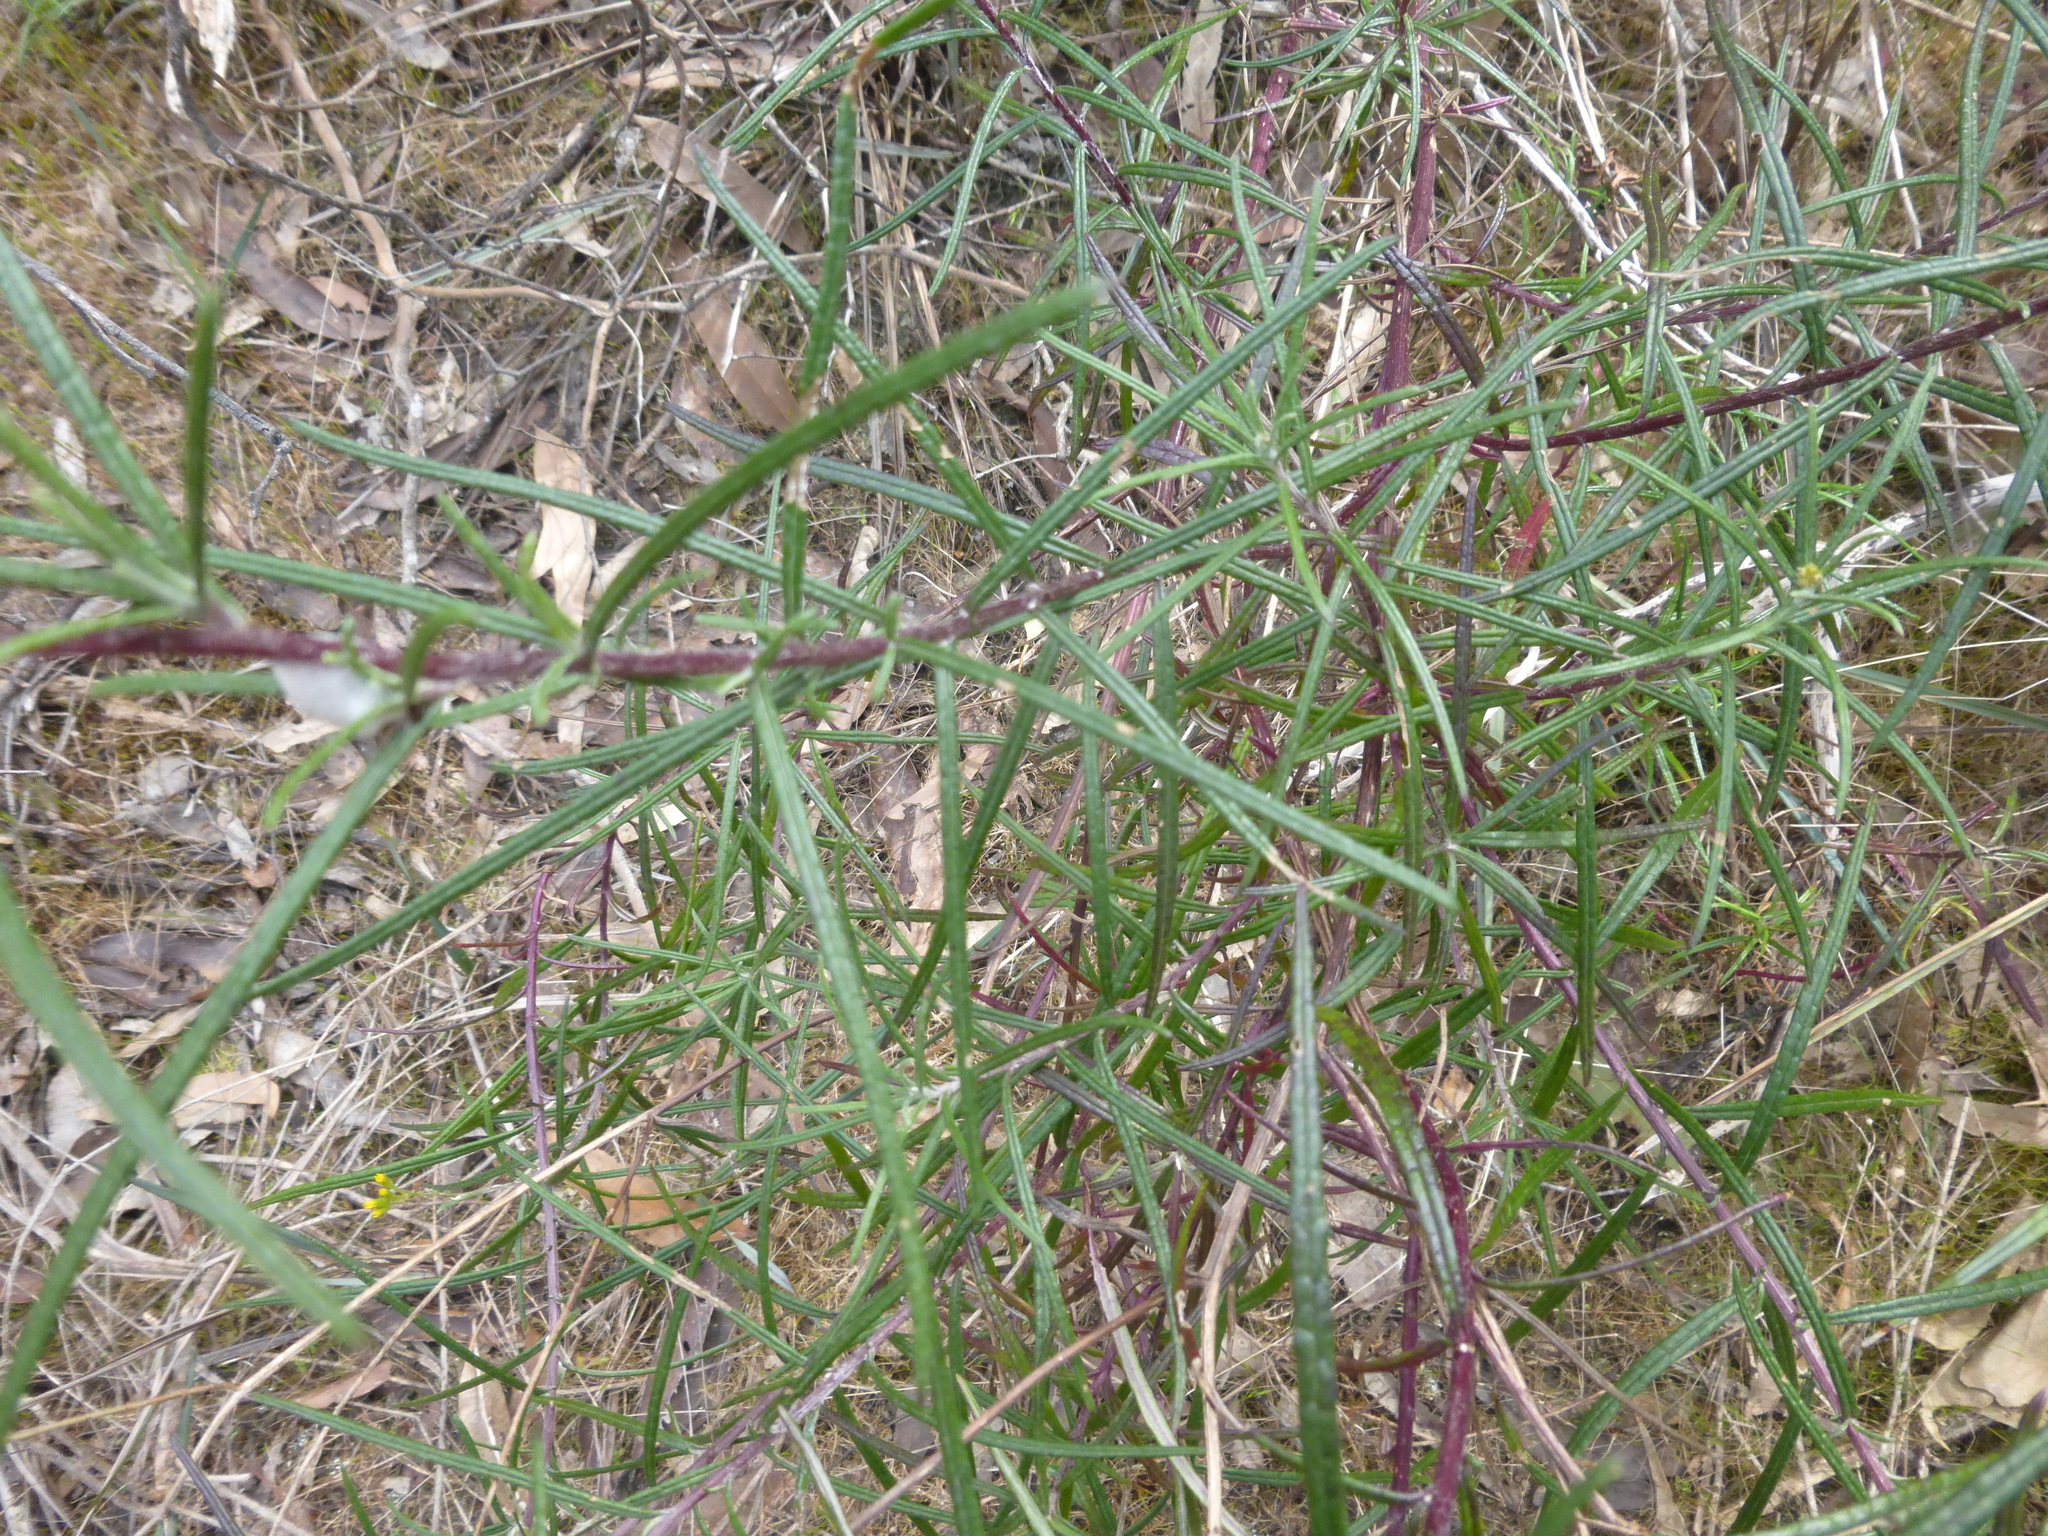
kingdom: Plantae
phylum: Tracheophyta
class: Magnoliopsida
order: Asterales
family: Asteraceae
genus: Senecio
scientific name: Senecio linearifolius
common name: Fireweed groundsel
